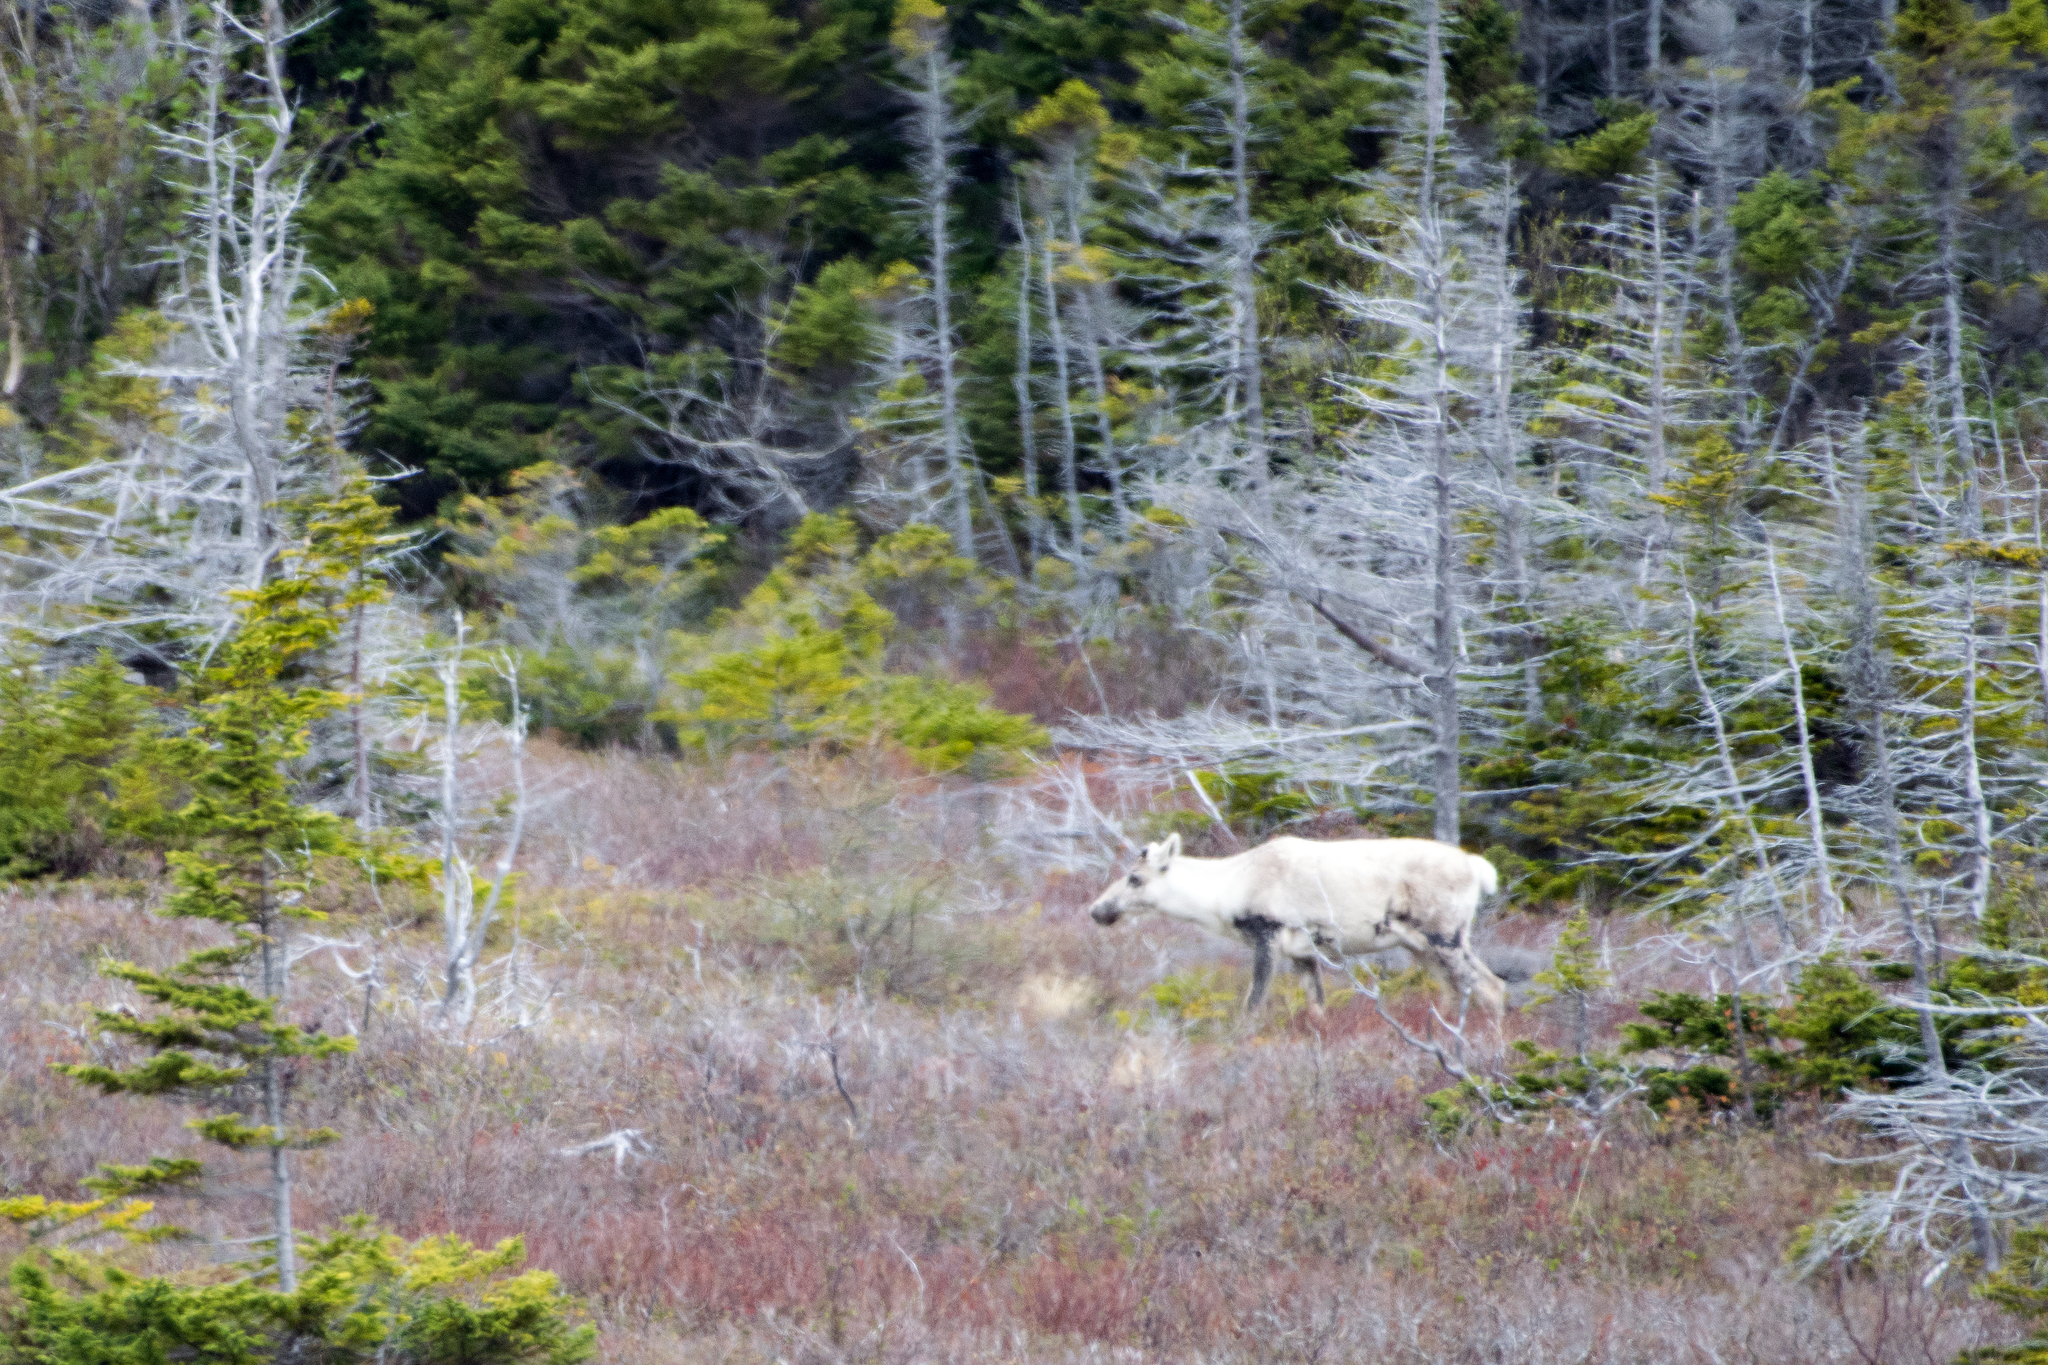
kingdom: Animalia
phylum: Chordata
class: Mammalia
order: Artiodactyla
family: Cervidae
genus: Rangifer
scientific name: Rangifer tarandus
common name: Reindeer
